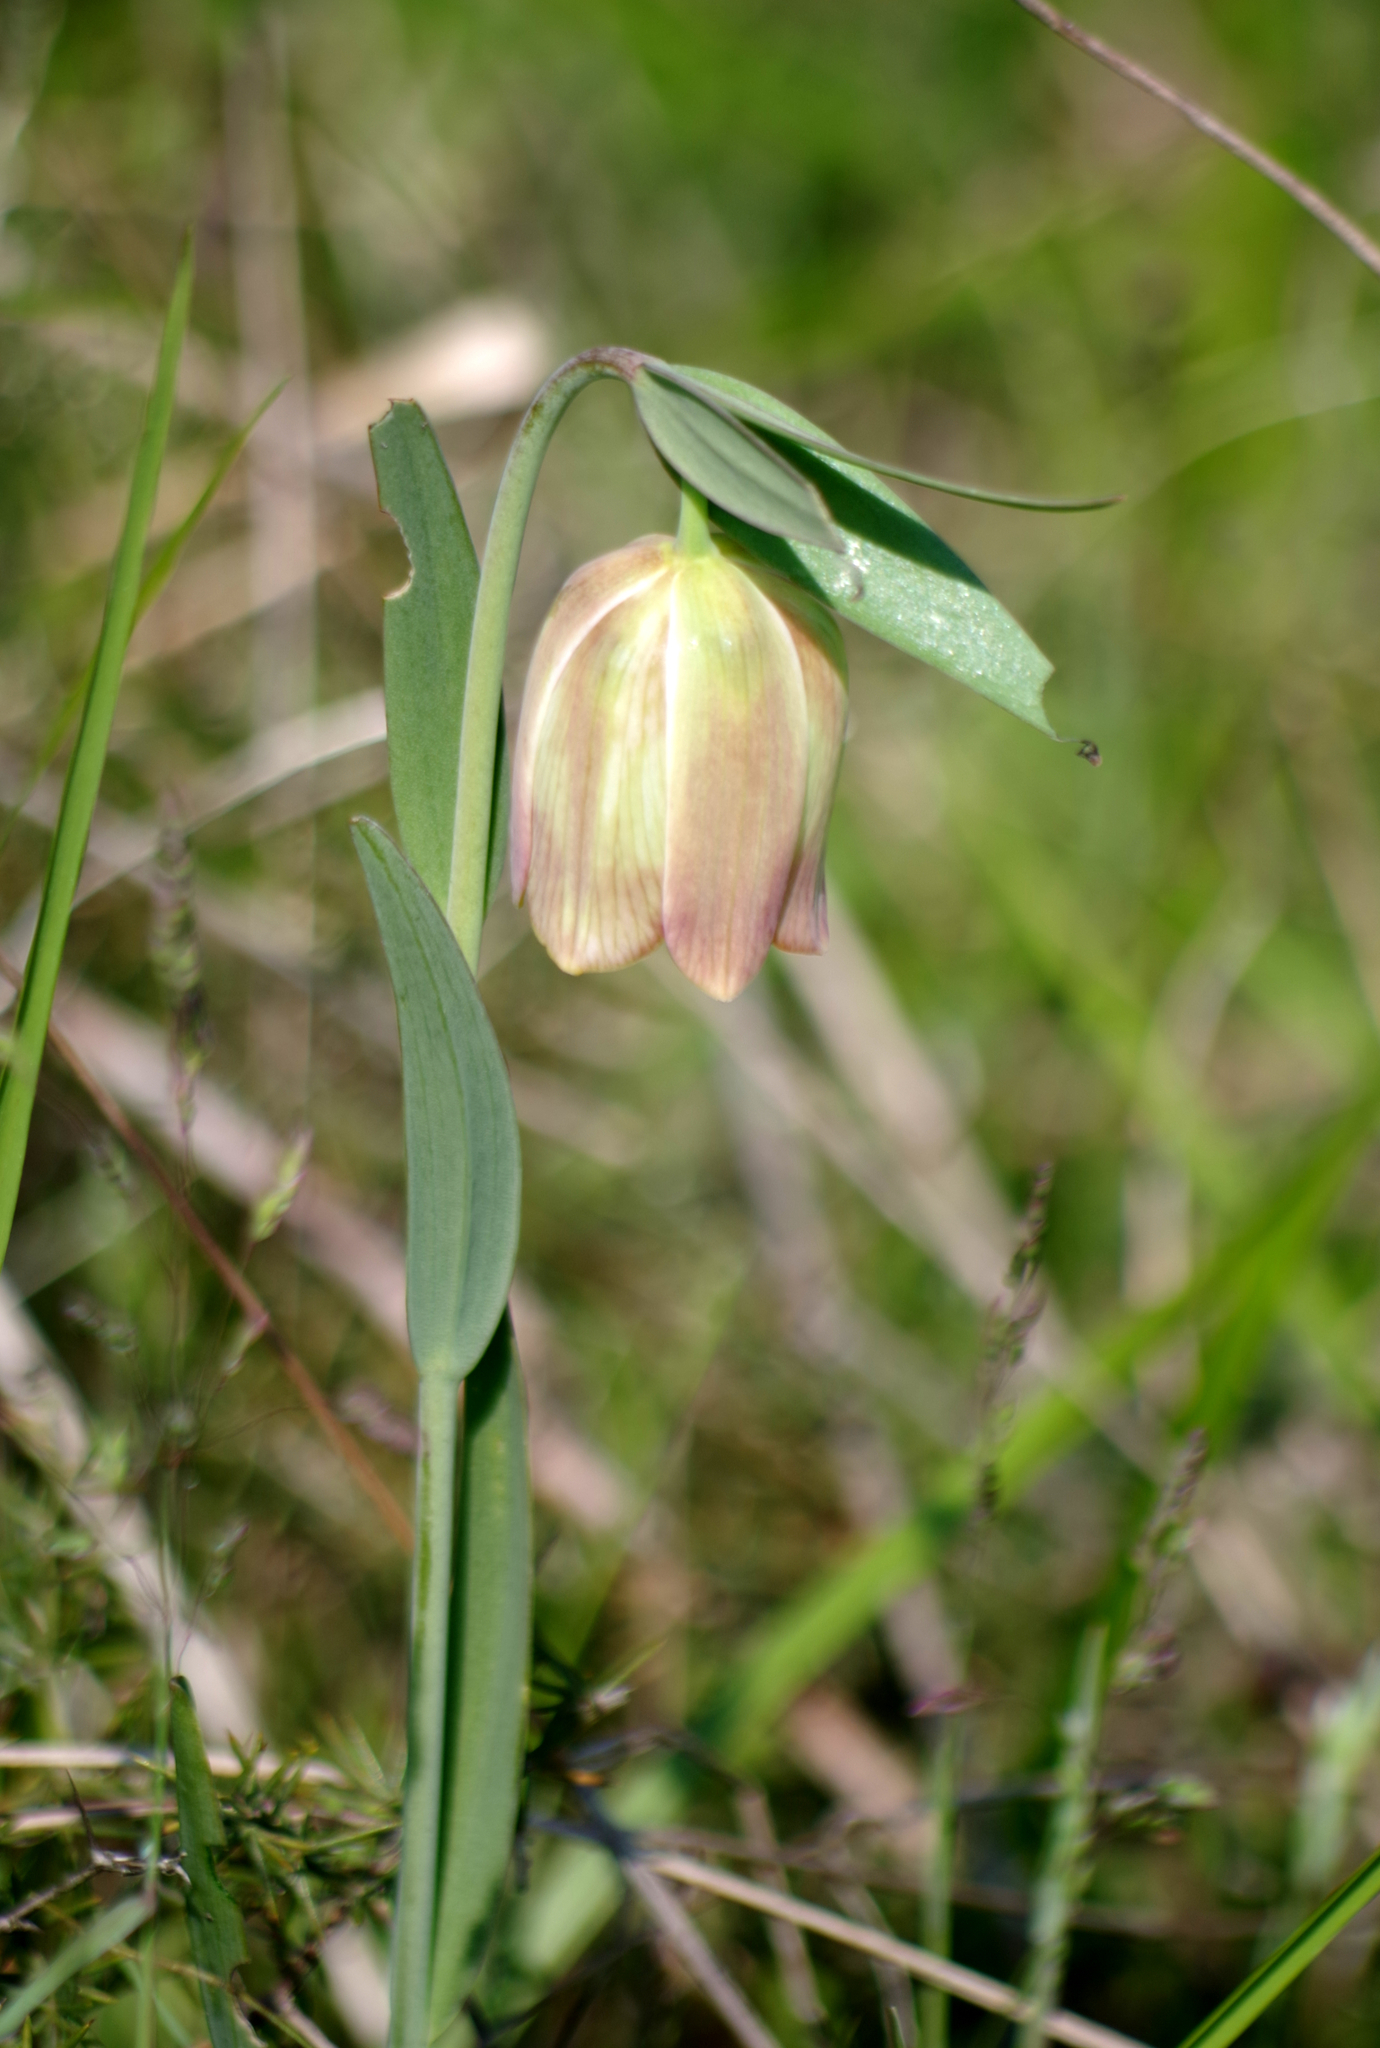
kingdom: Plantae
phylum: Tracheophyta
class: Liliopsida
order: Liliales
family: Liliaceae
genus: Fritillaria
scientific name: Fritillaria pontica
